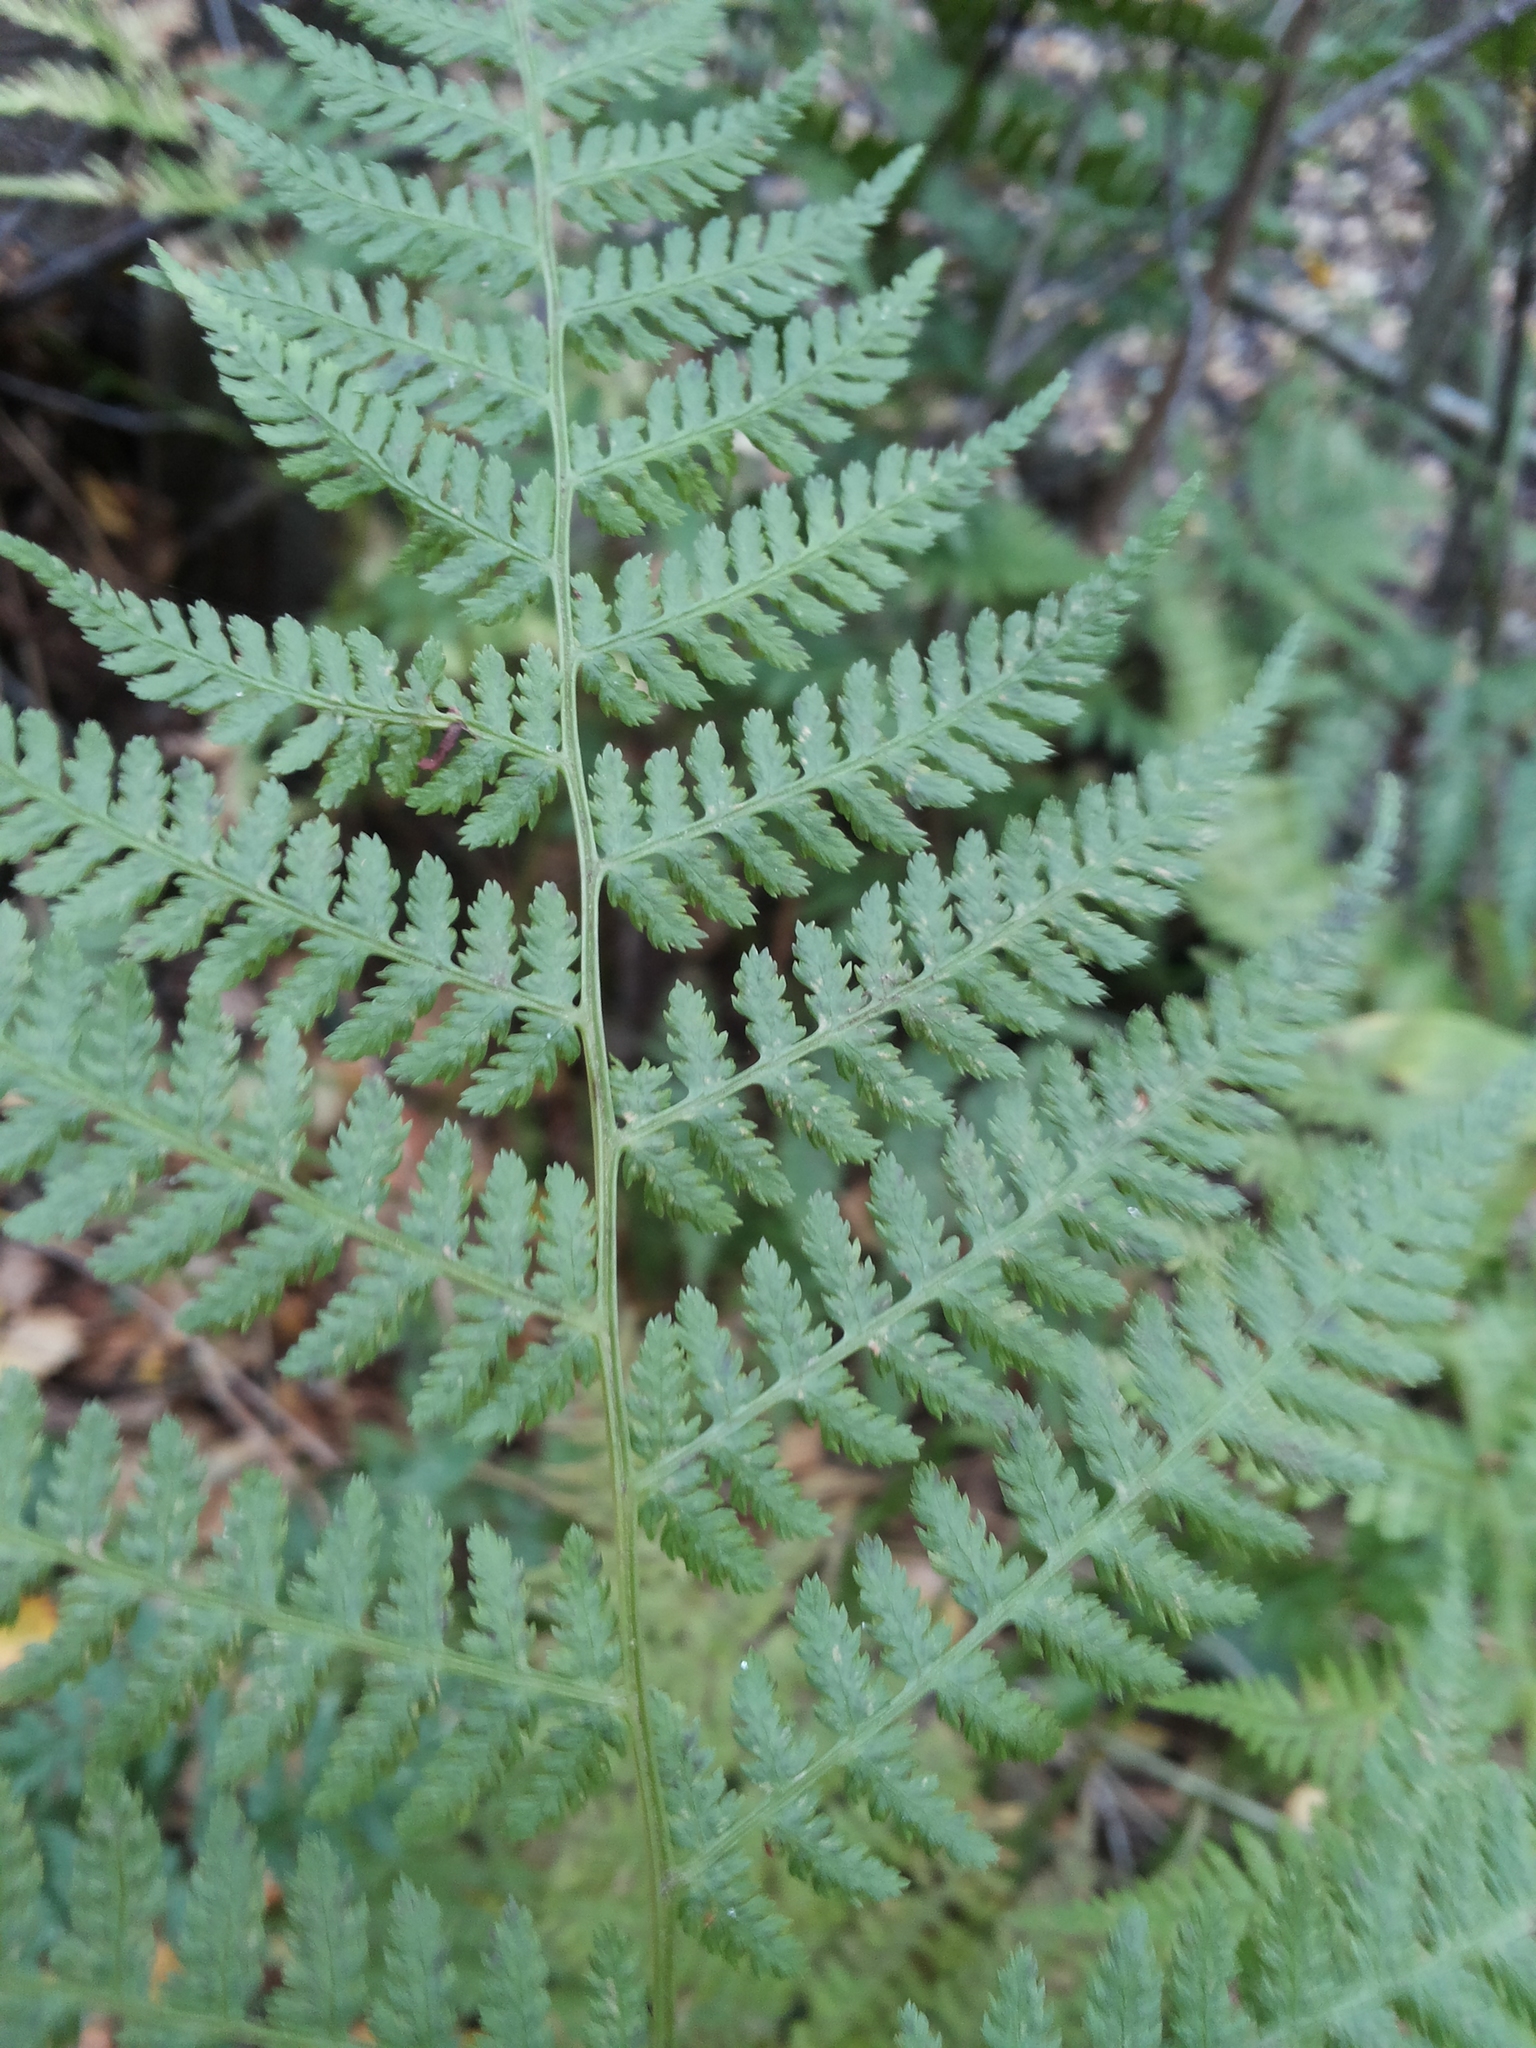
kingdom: Plantae
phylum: Tracheophyta
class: Polypodiopsida
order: Polypodiales
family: Dryopteridaceae
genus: Dryopteris
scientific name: Dryopteris carthusiana
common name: Narrow buckler-fern
